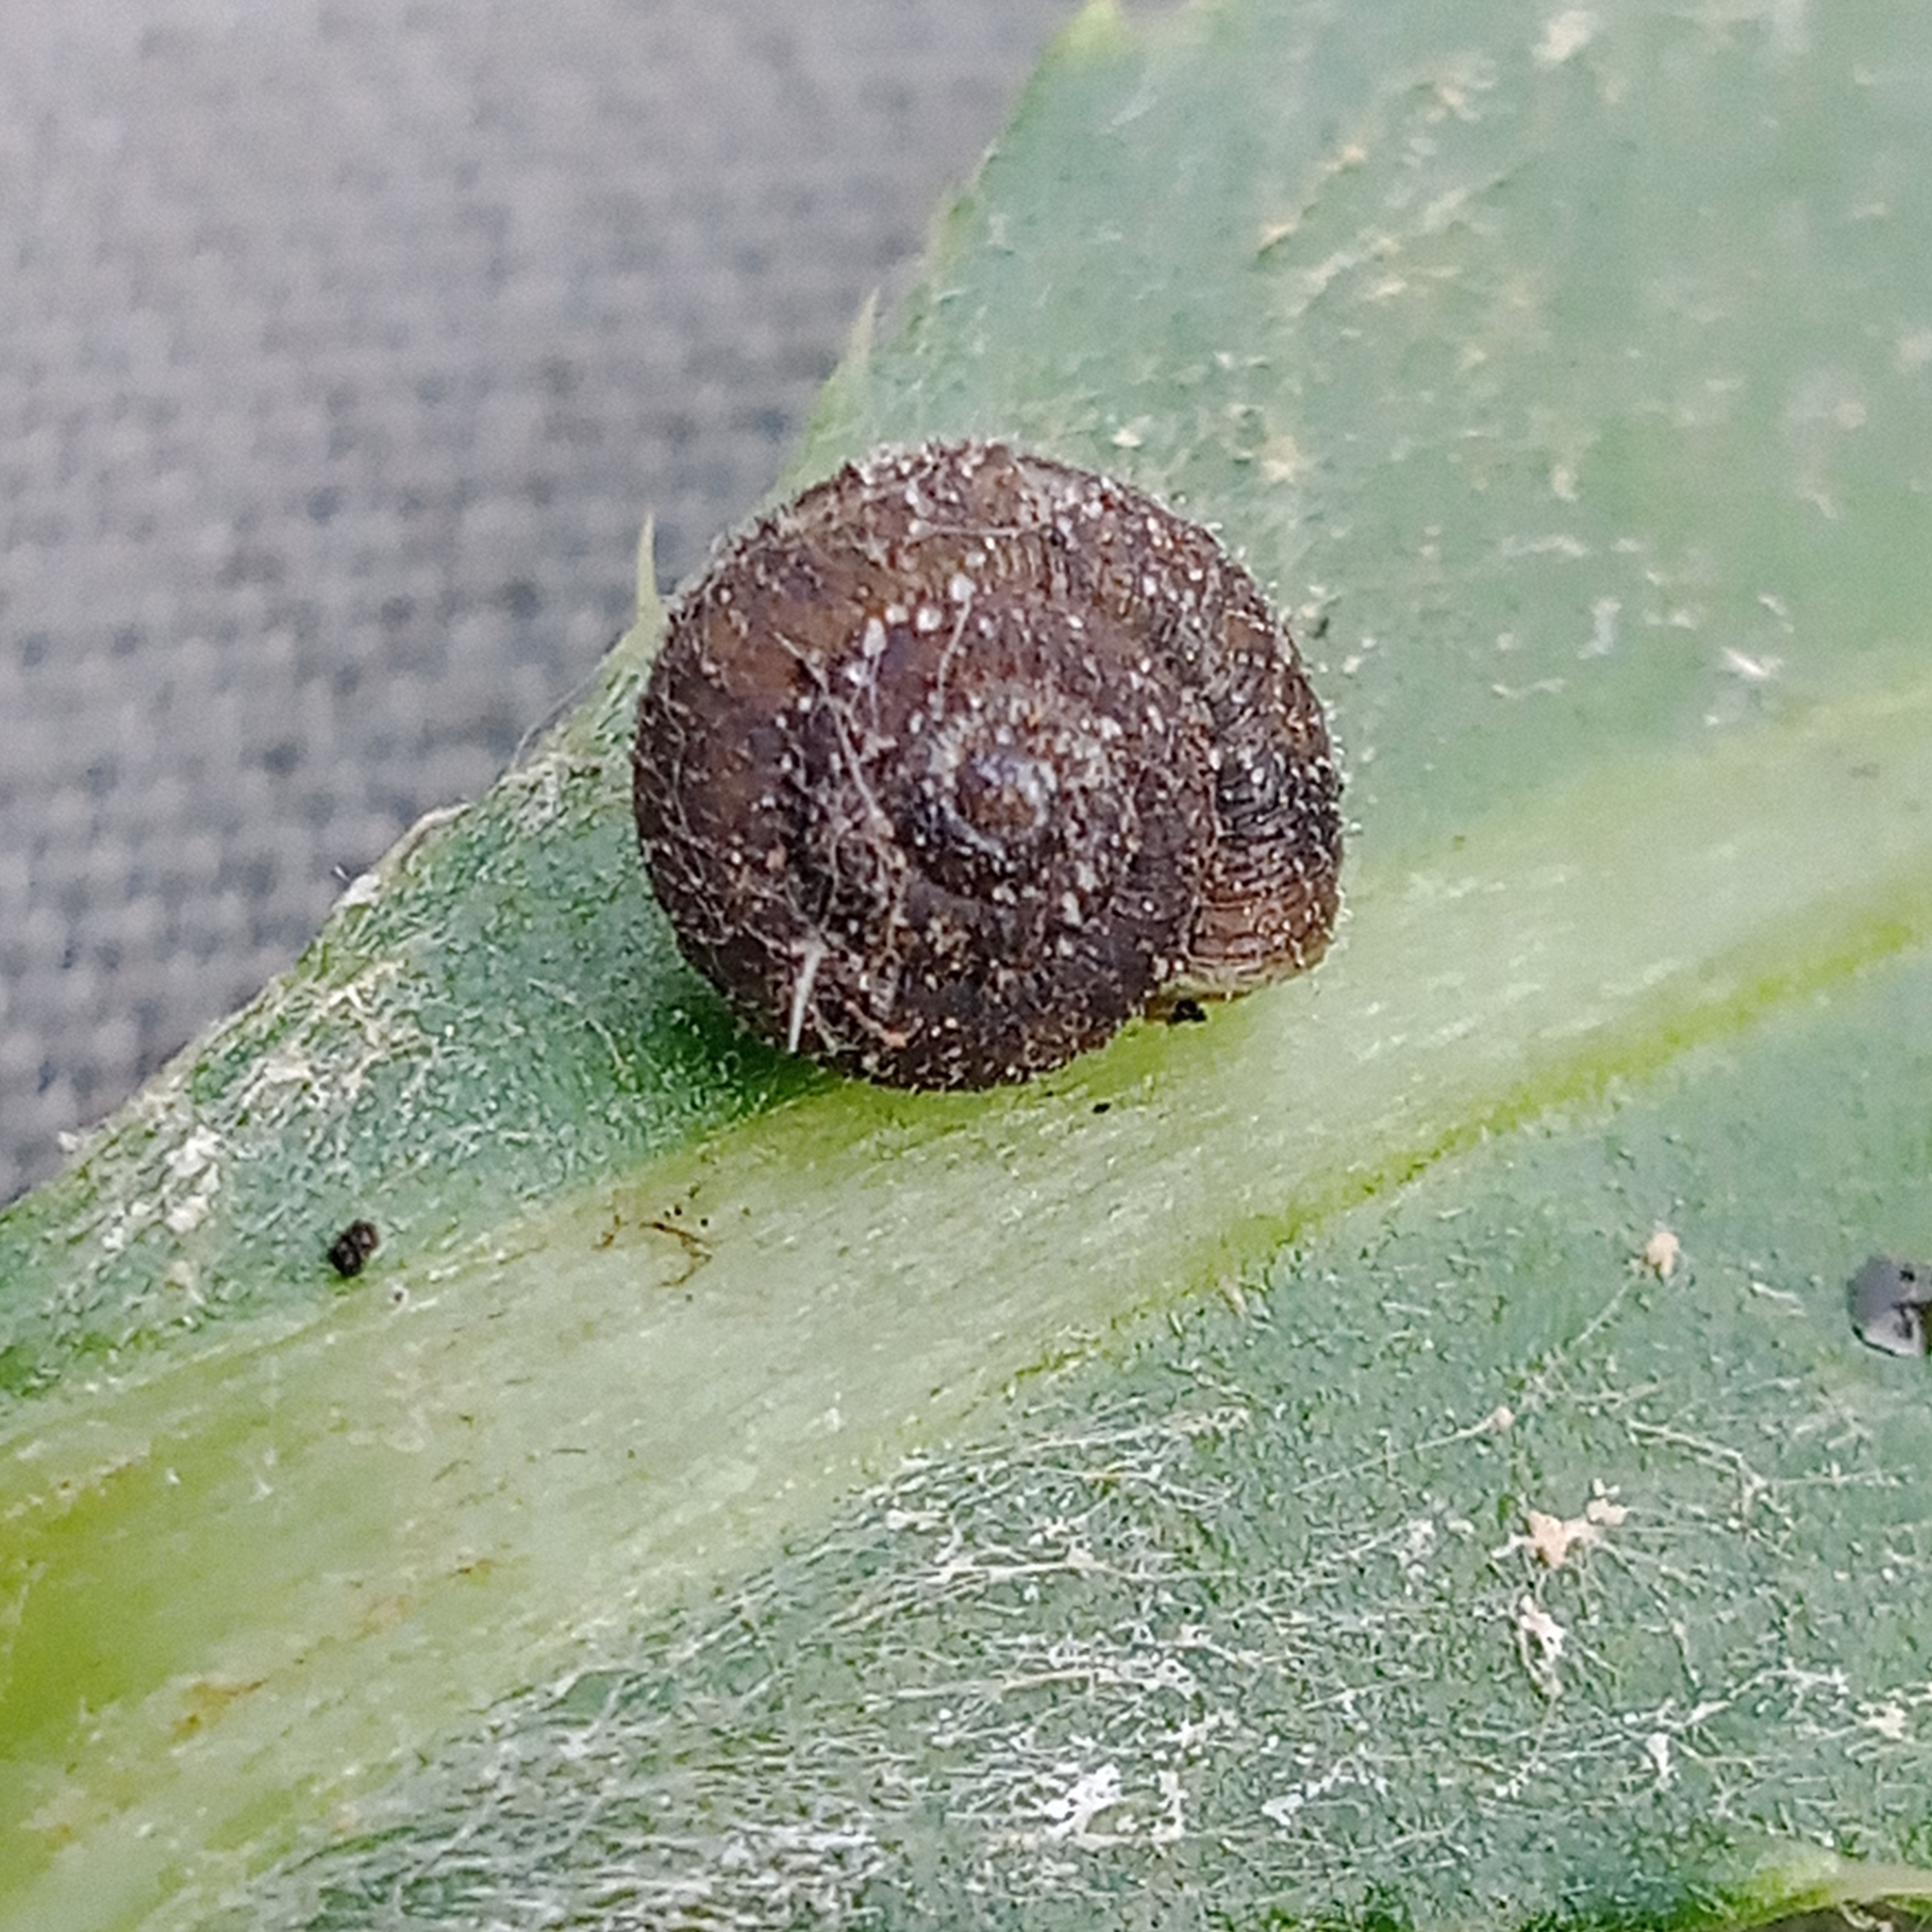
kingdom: Animalia
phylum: Mollusca
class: Gastropoda
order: Stylommatophora
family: Hygromiidae
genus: Trochulus
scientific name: Trochulus hispidus
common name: Hairy snail
